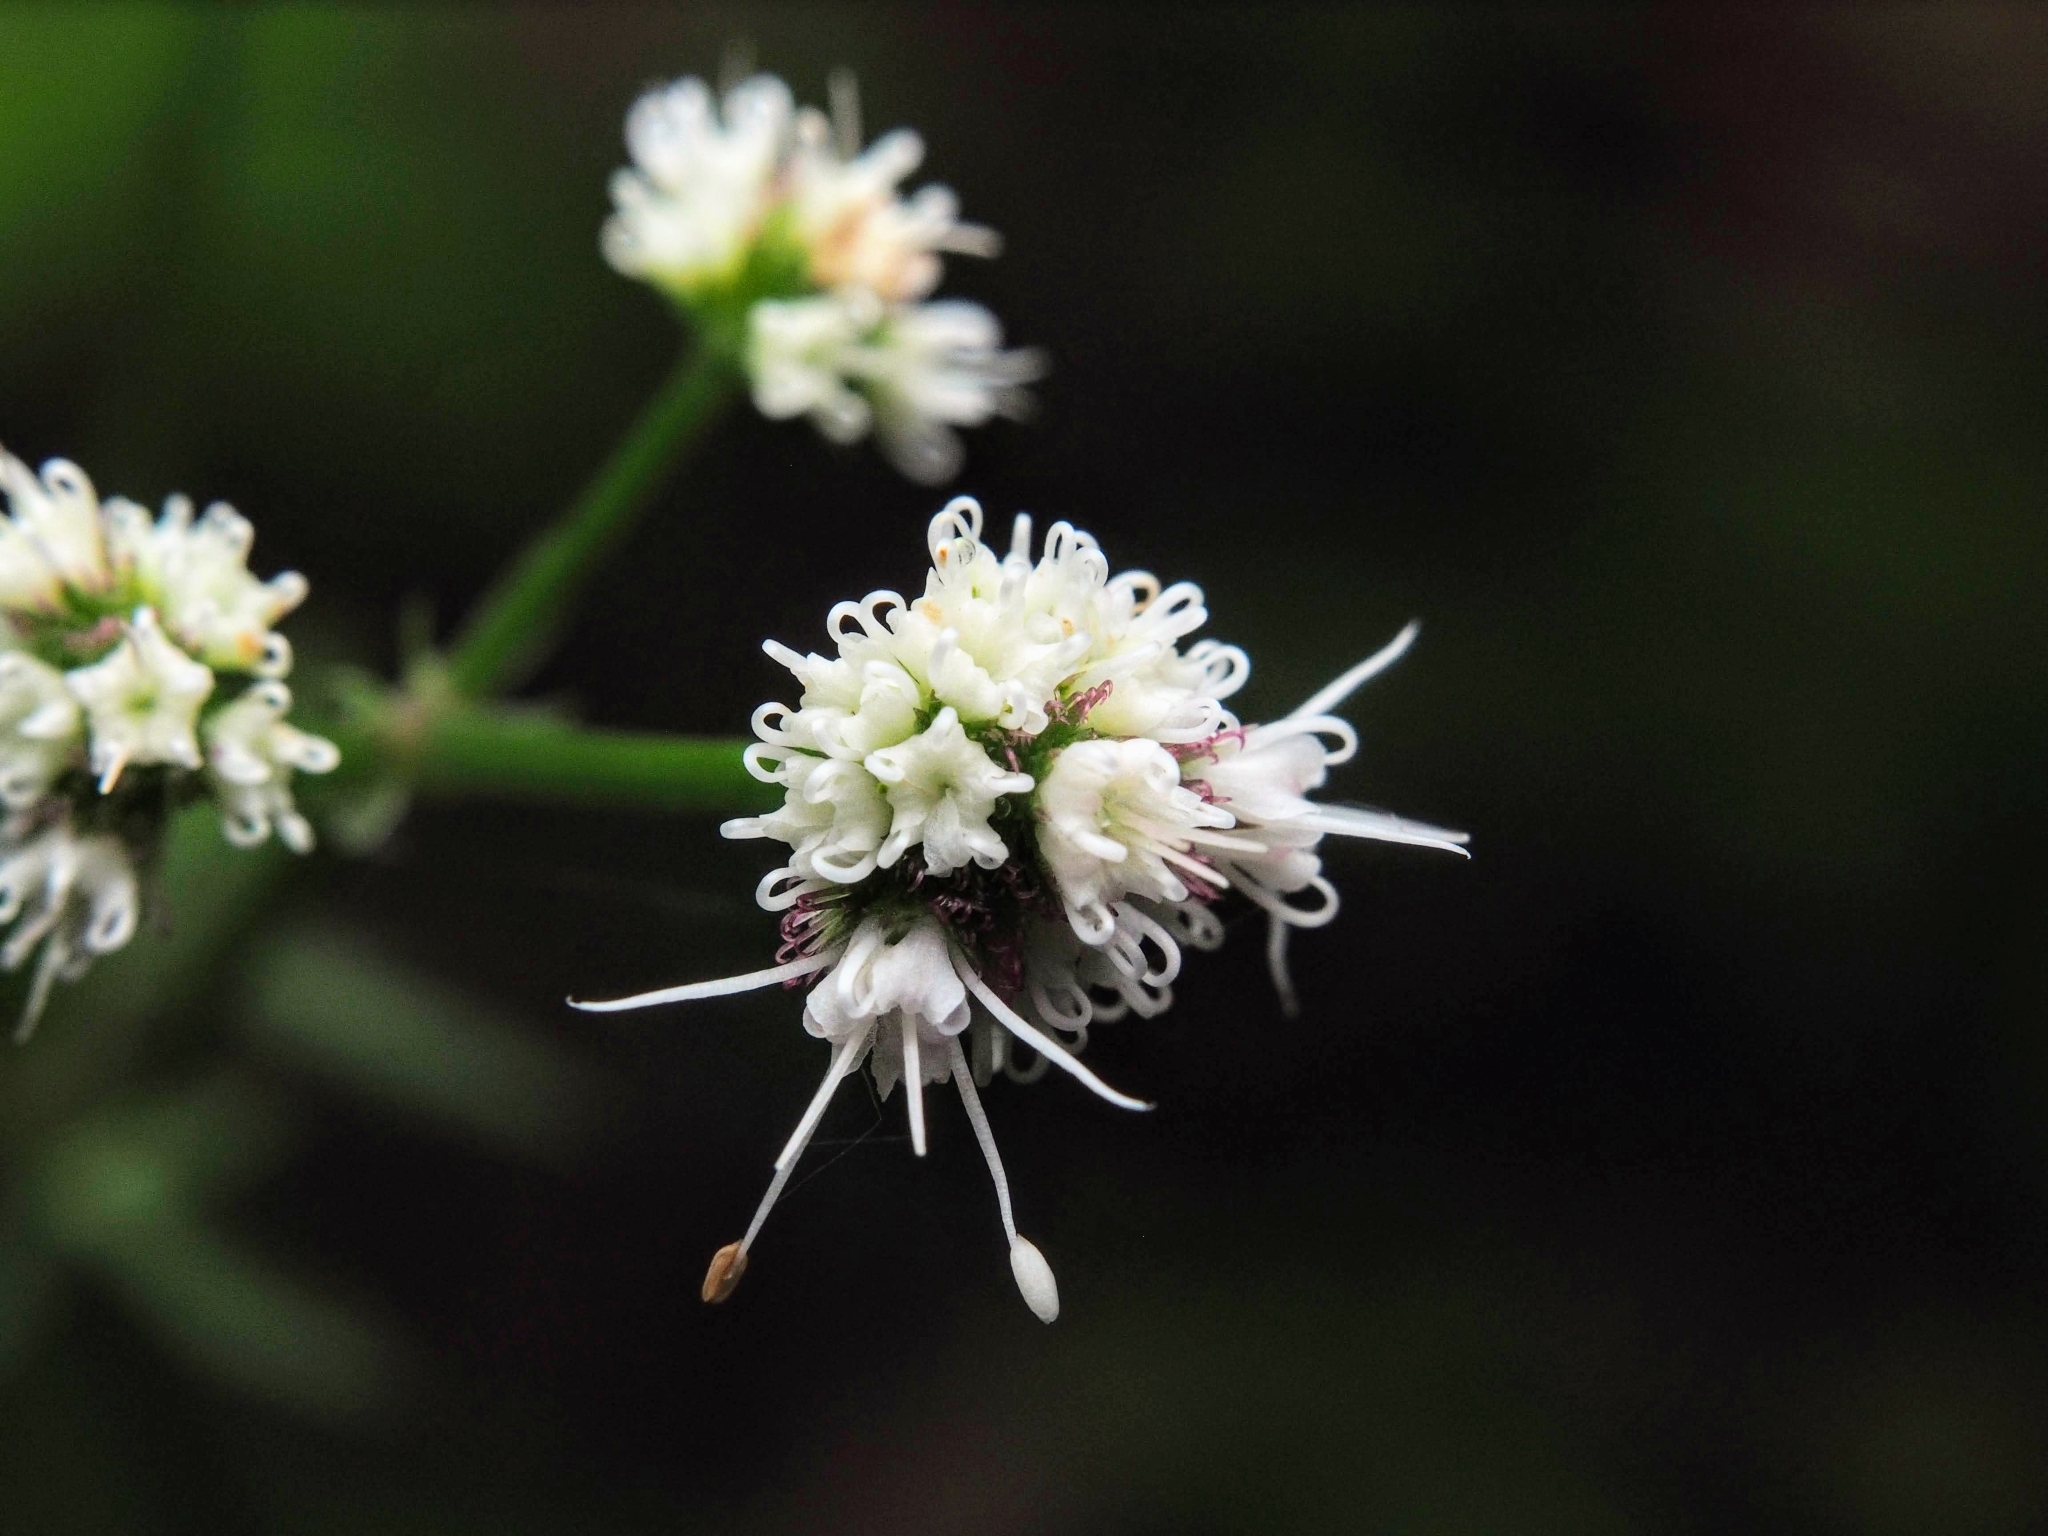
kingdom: Plantae
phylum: Tracheophyta
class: Magnoliopsida
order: Apiales
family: Apiaceae
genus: Sanicula
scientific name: Sanicula europaea
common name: Sanicle
